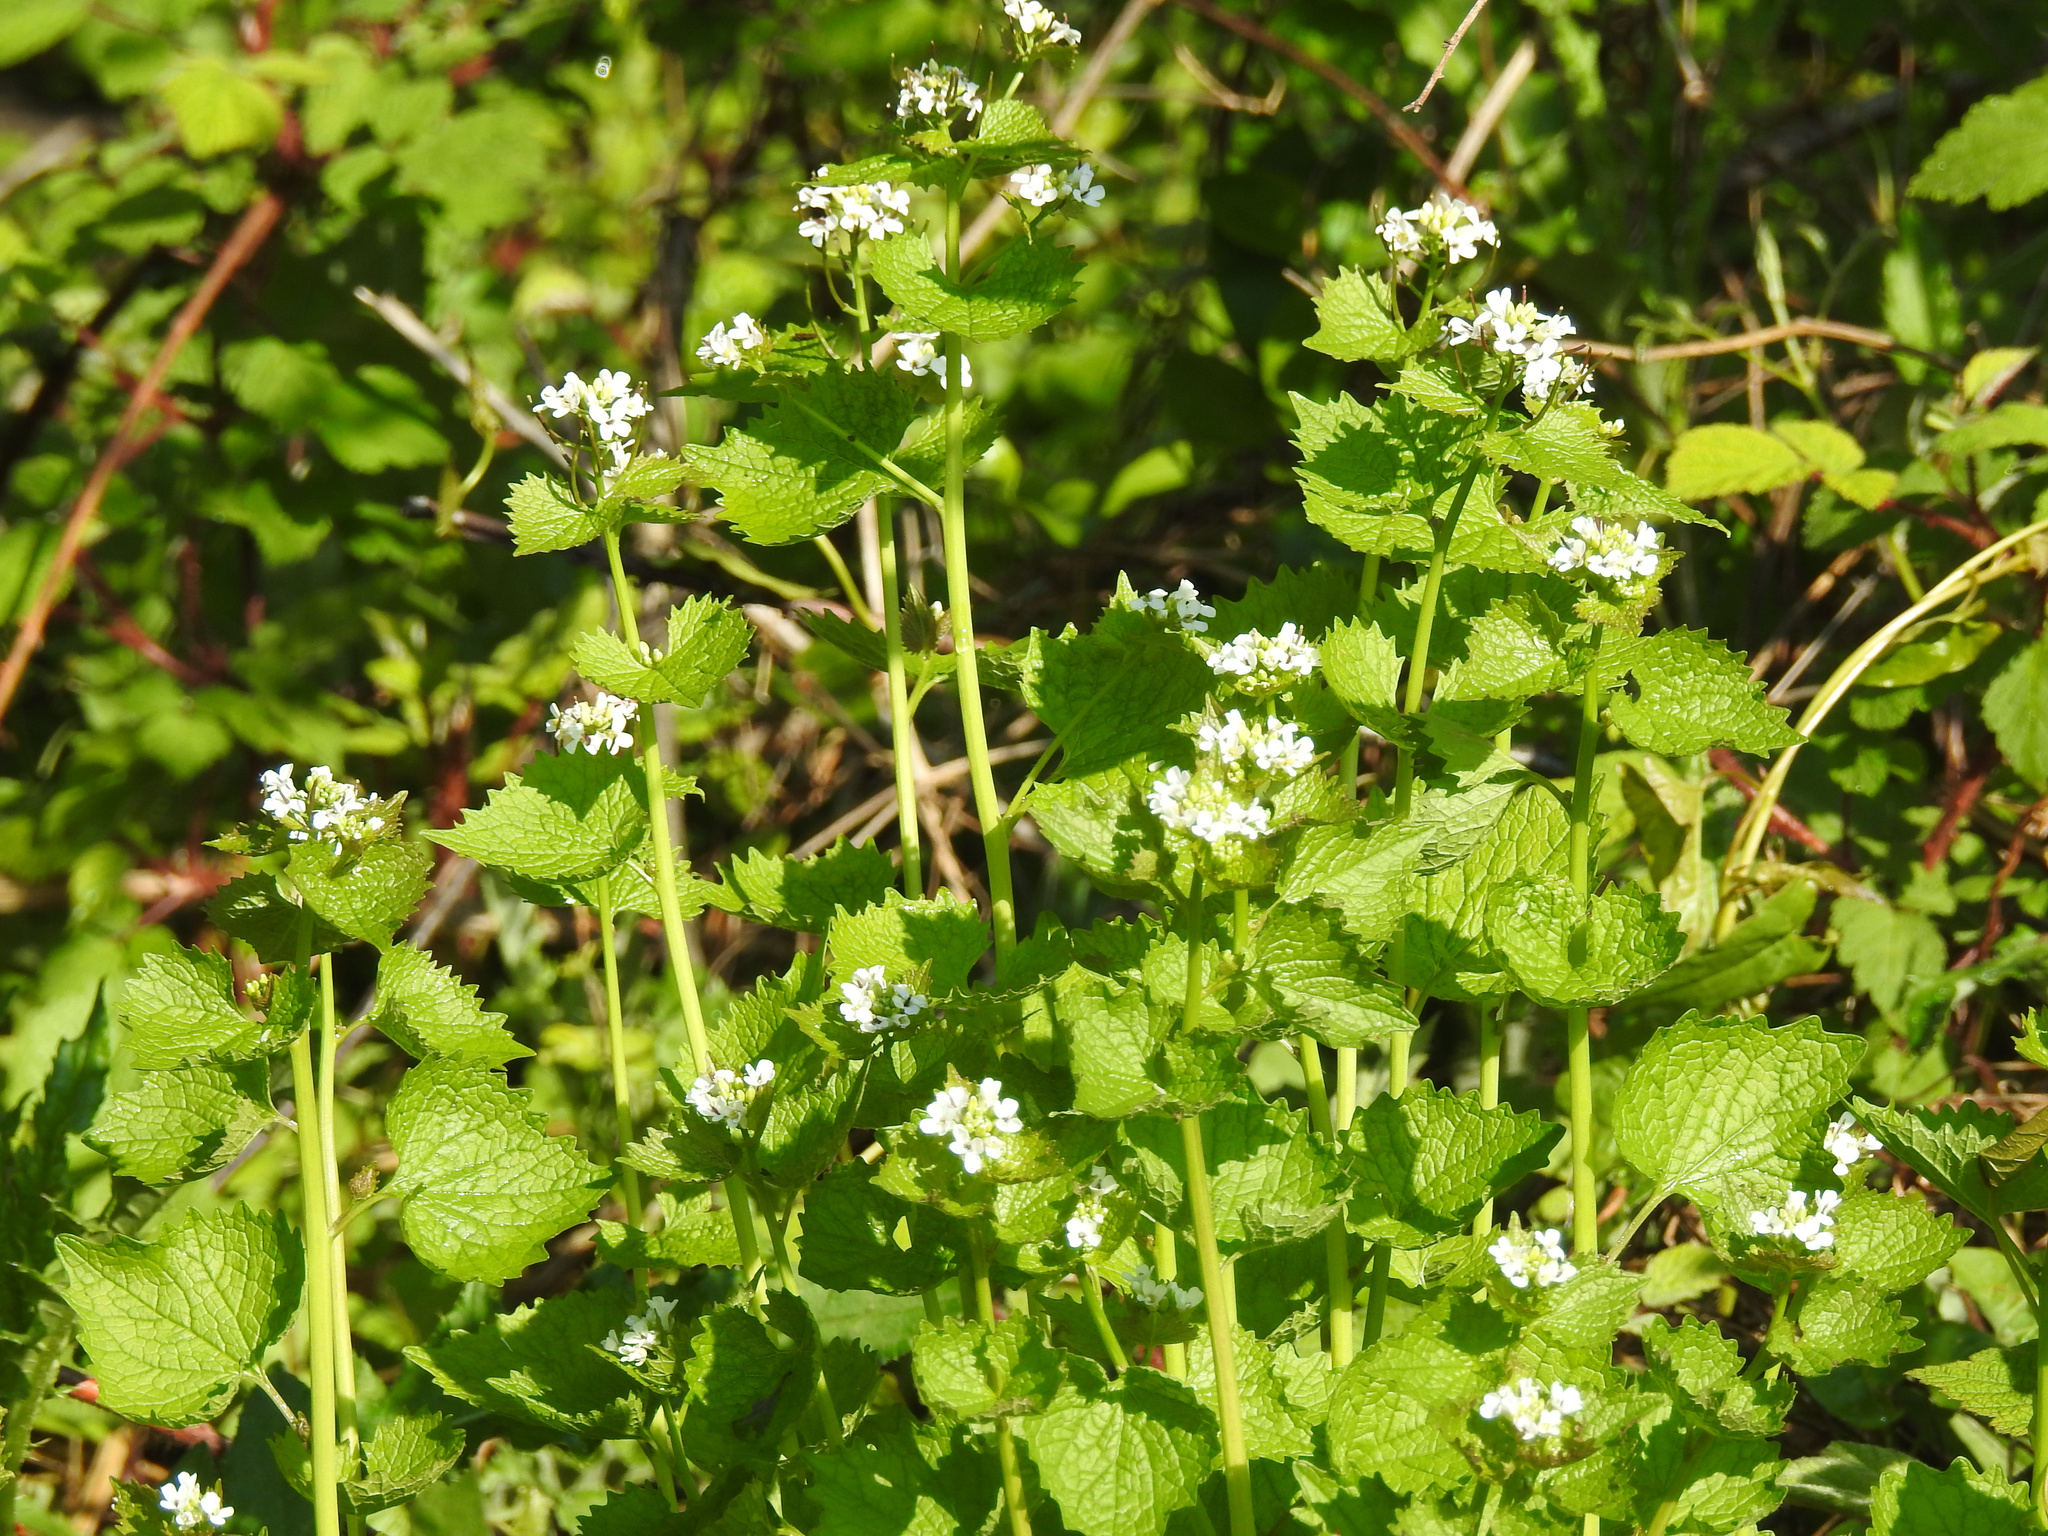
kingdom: Plantae
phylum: Tracheophyta
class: Magnoliopsida
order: Brassicales
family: Brassicaceae
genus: Alliaria
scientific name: Alliaria petiolata
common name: Garlic mustard
